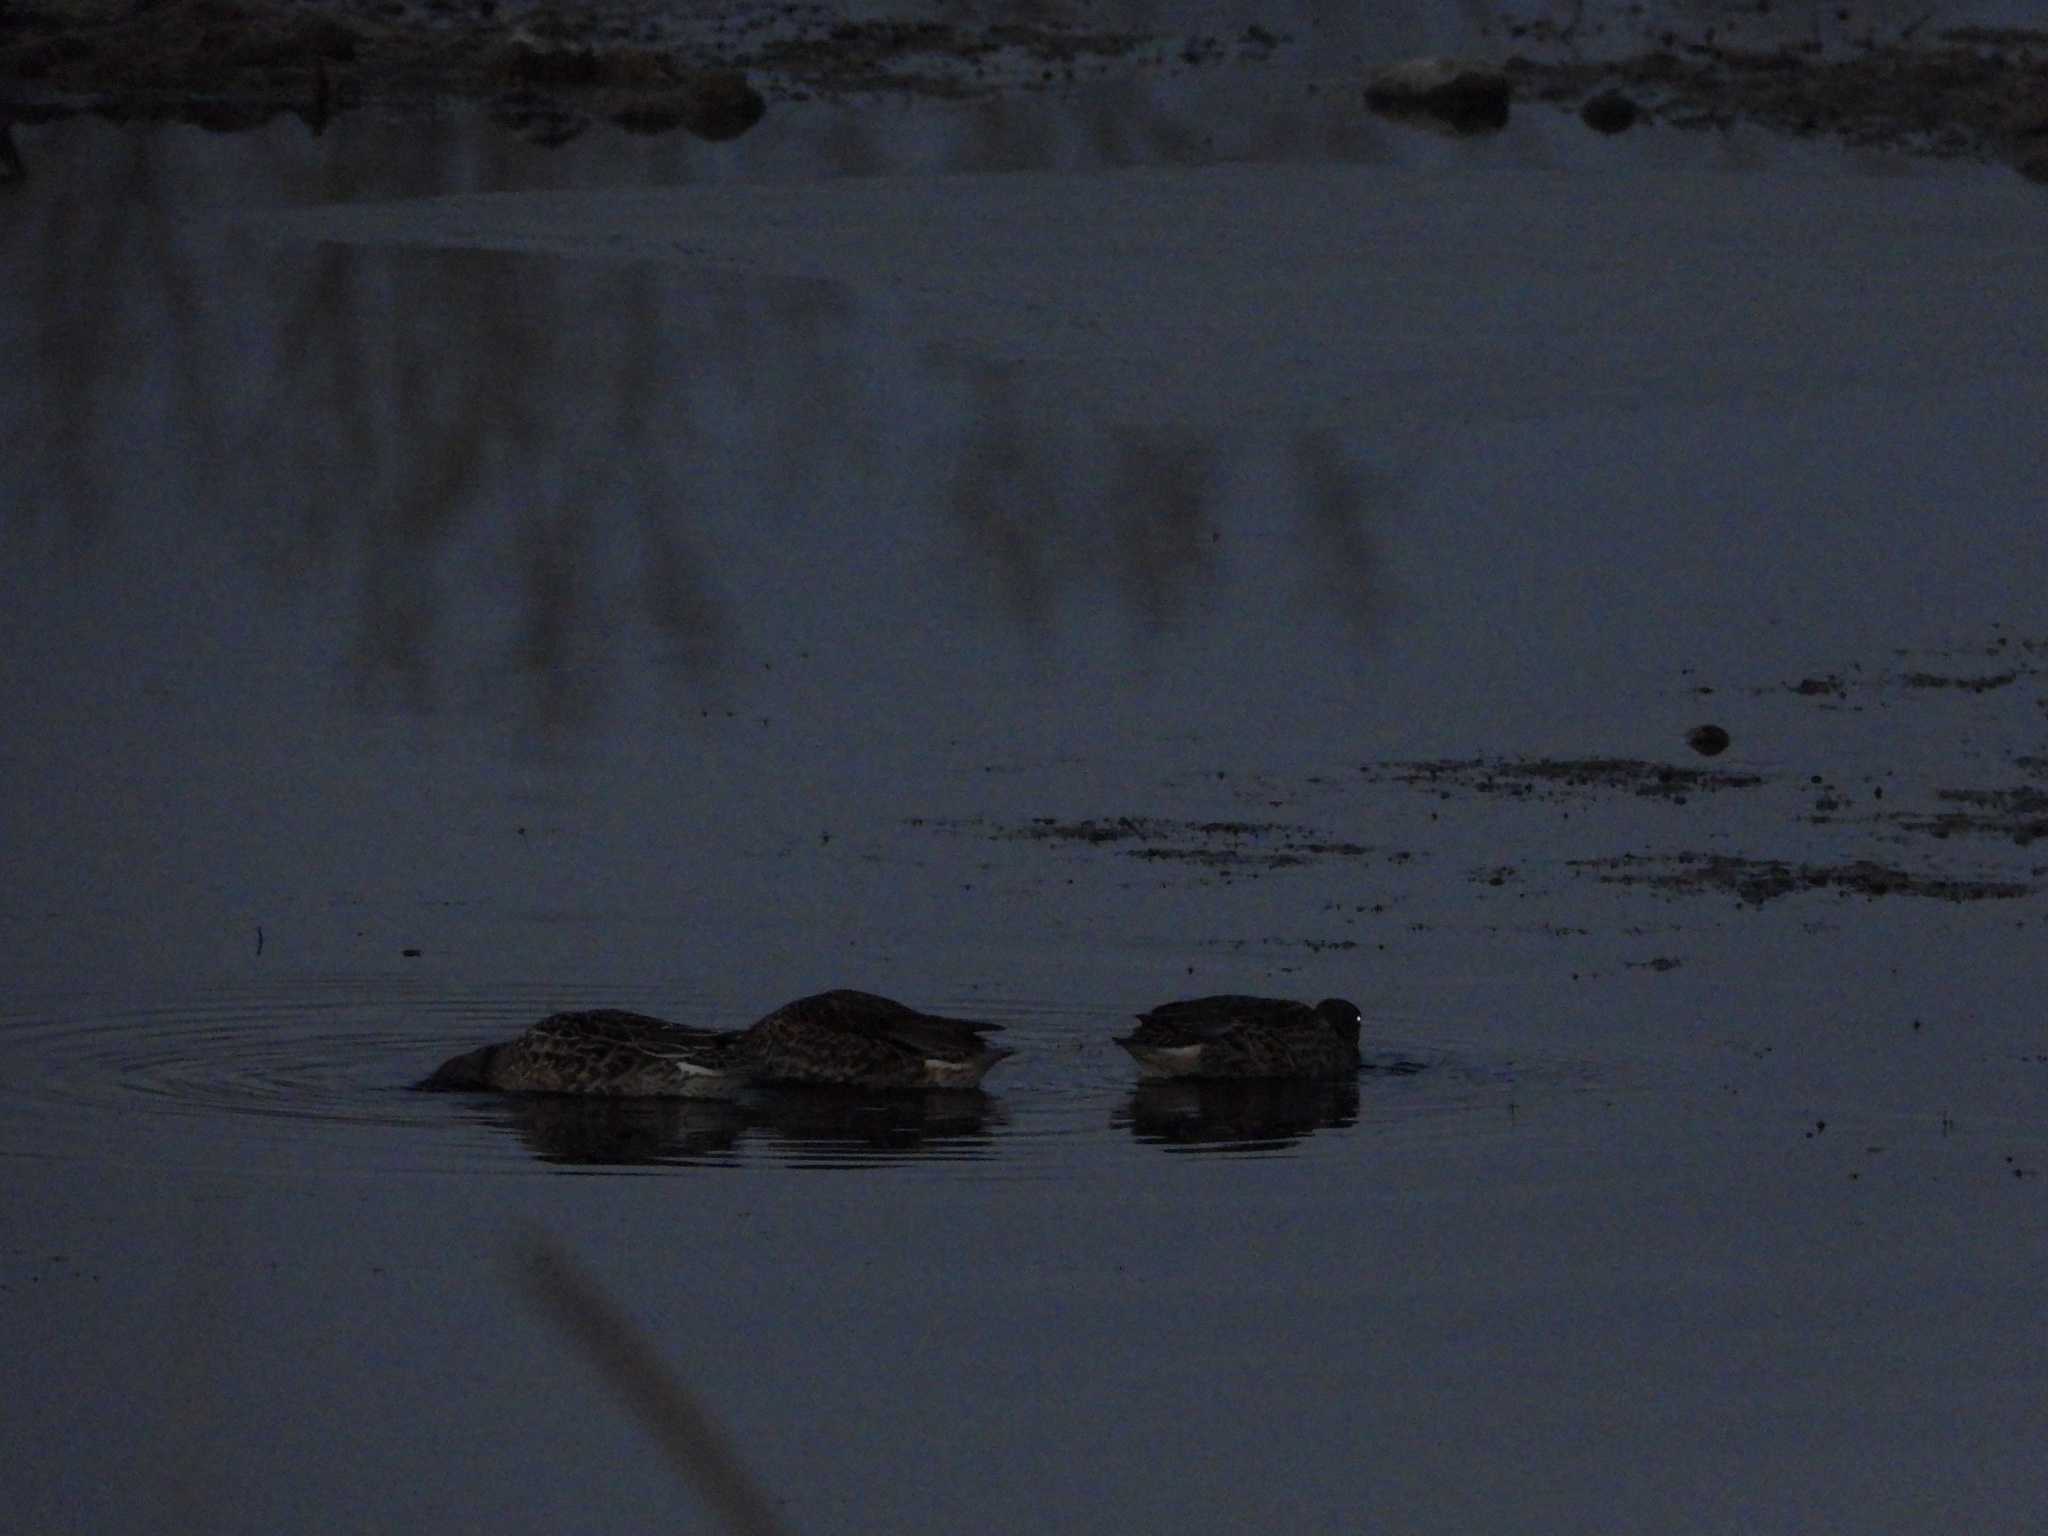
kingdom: Animalia
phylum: Chordata
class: Aves
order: Anseriformes
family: Anatidae
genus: Spatula
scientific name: Spatula clypeata
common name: Northern shoveler
